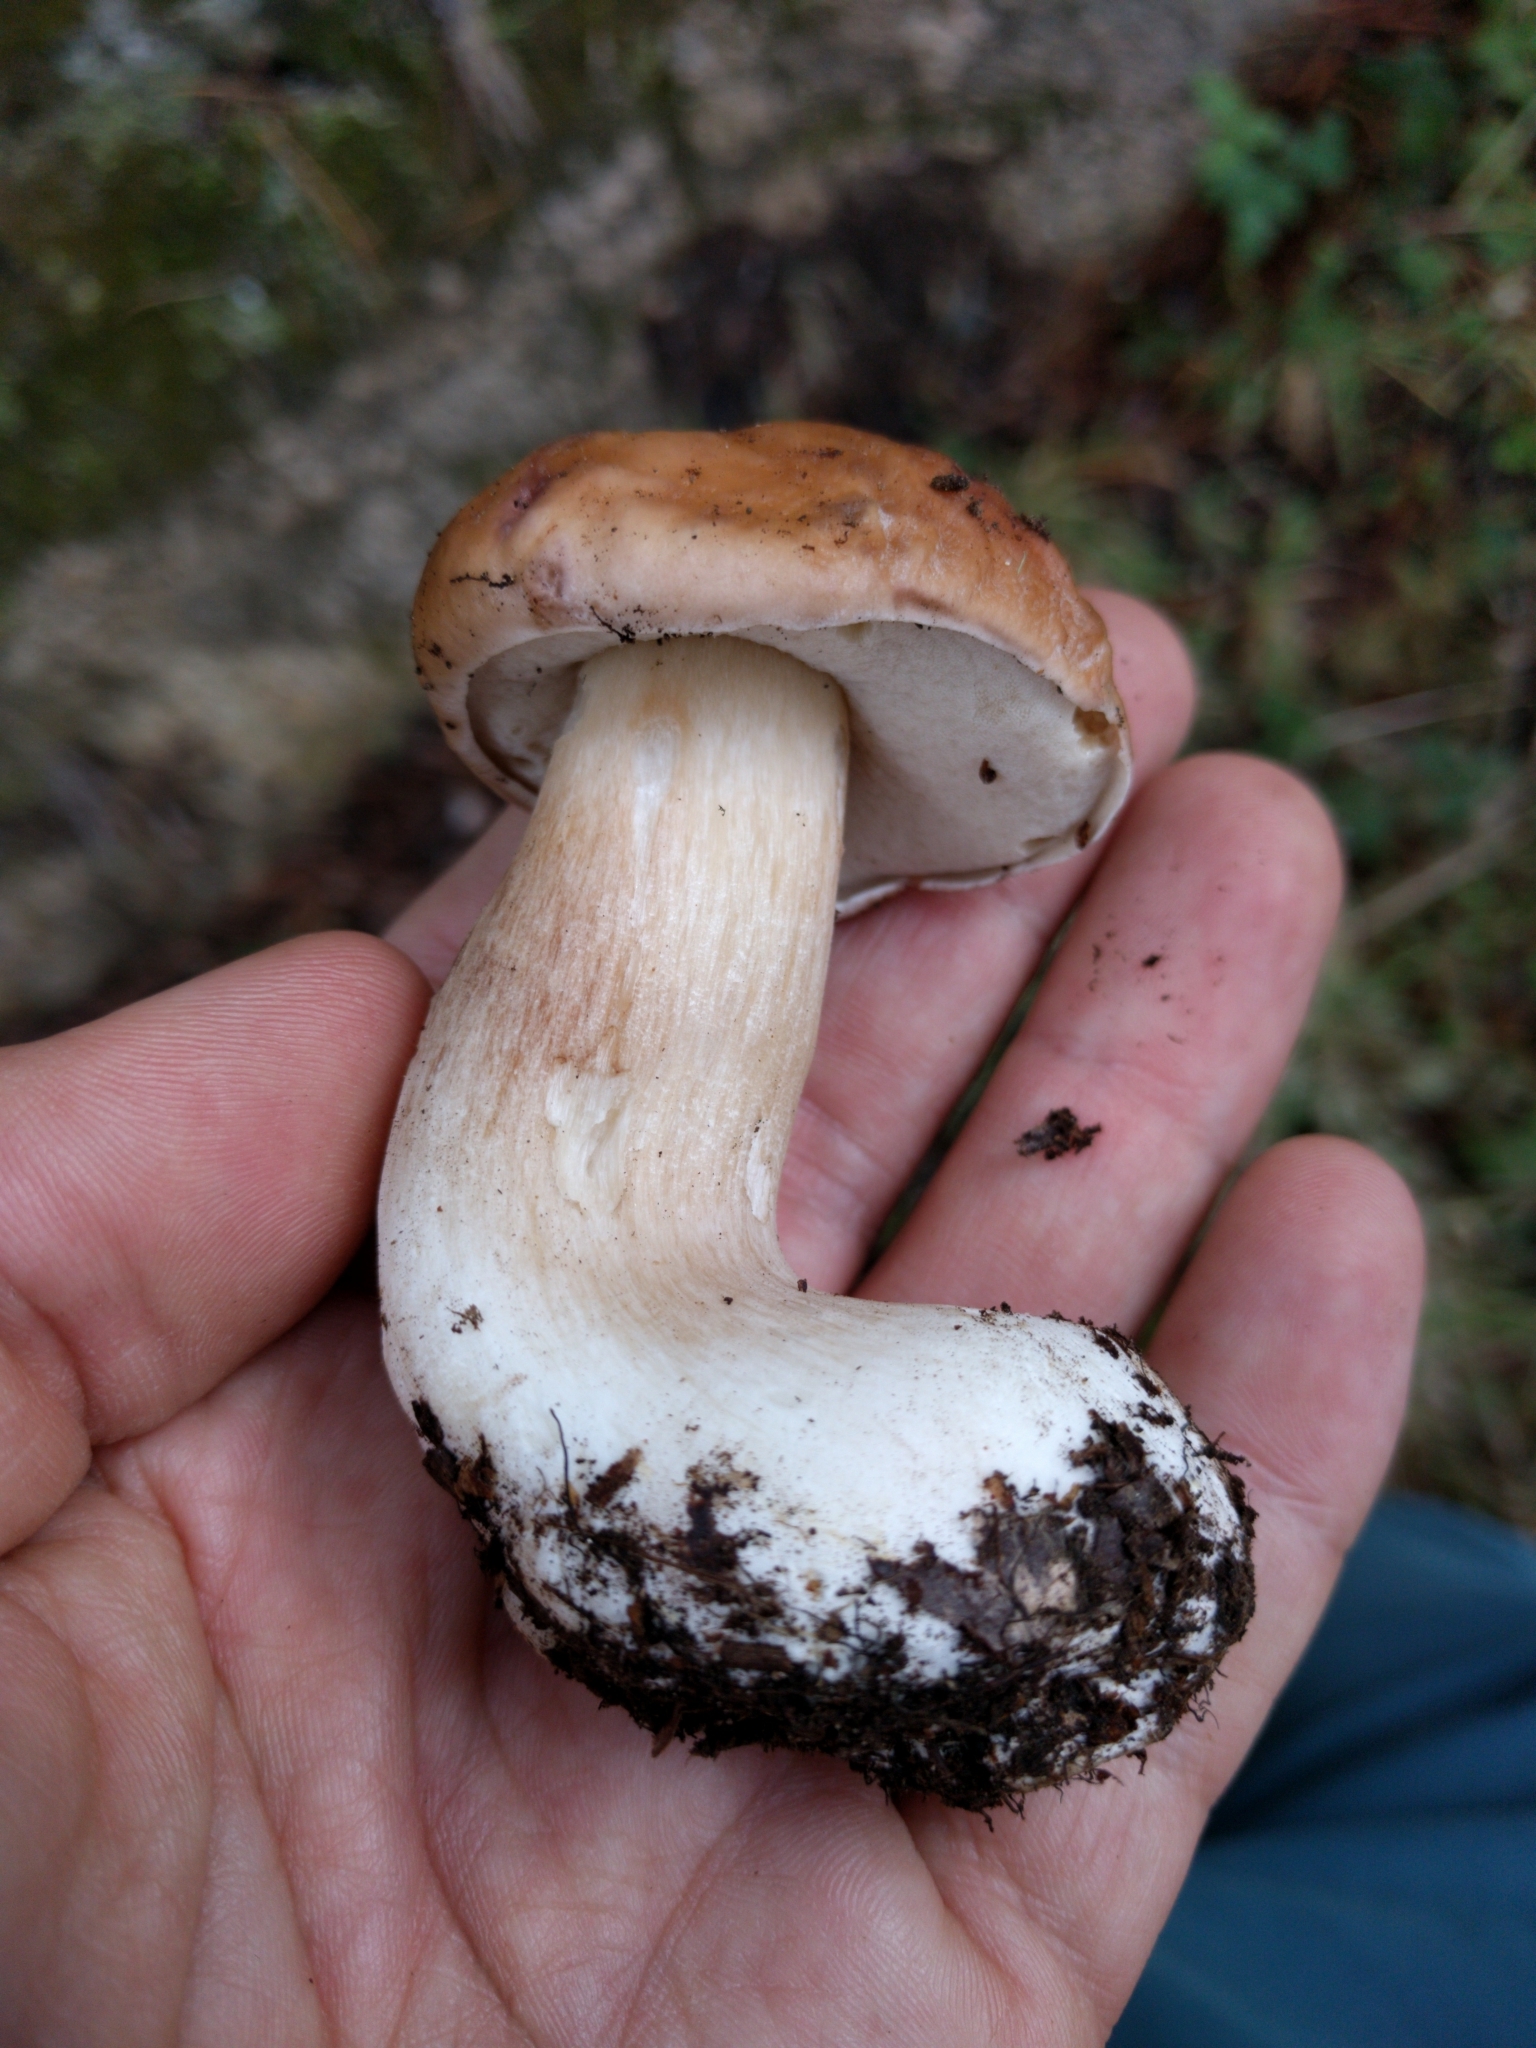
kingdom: Fungi
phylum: Basidiomycota
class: Agaricomycetes
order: Boletales
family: Boletaceae
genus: Boletus
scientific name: Boletus edulis
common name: Cep
